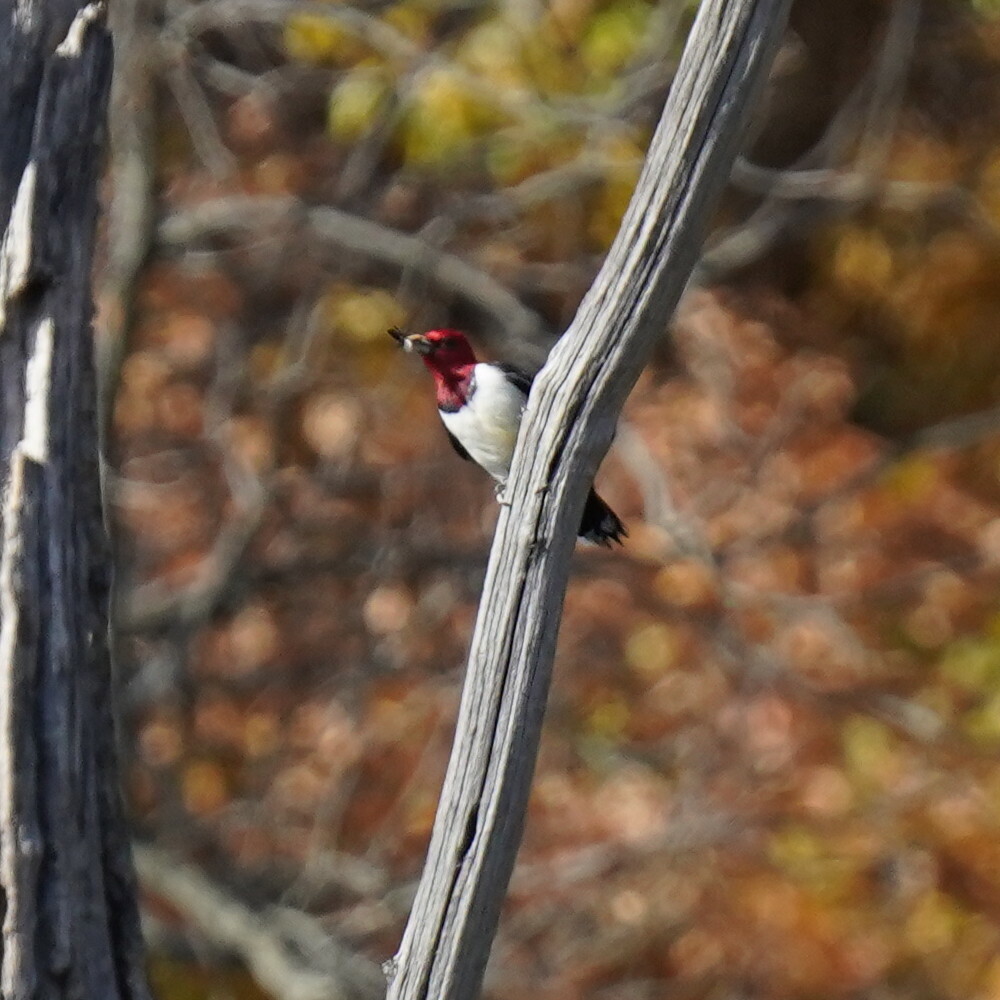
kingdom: Animalia
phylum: Chordata
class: Aves
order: Piciformes
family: Picidae
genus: Melanerpes
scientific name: Melanerpes erythrocephalus
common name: Red-headed woodpecker
